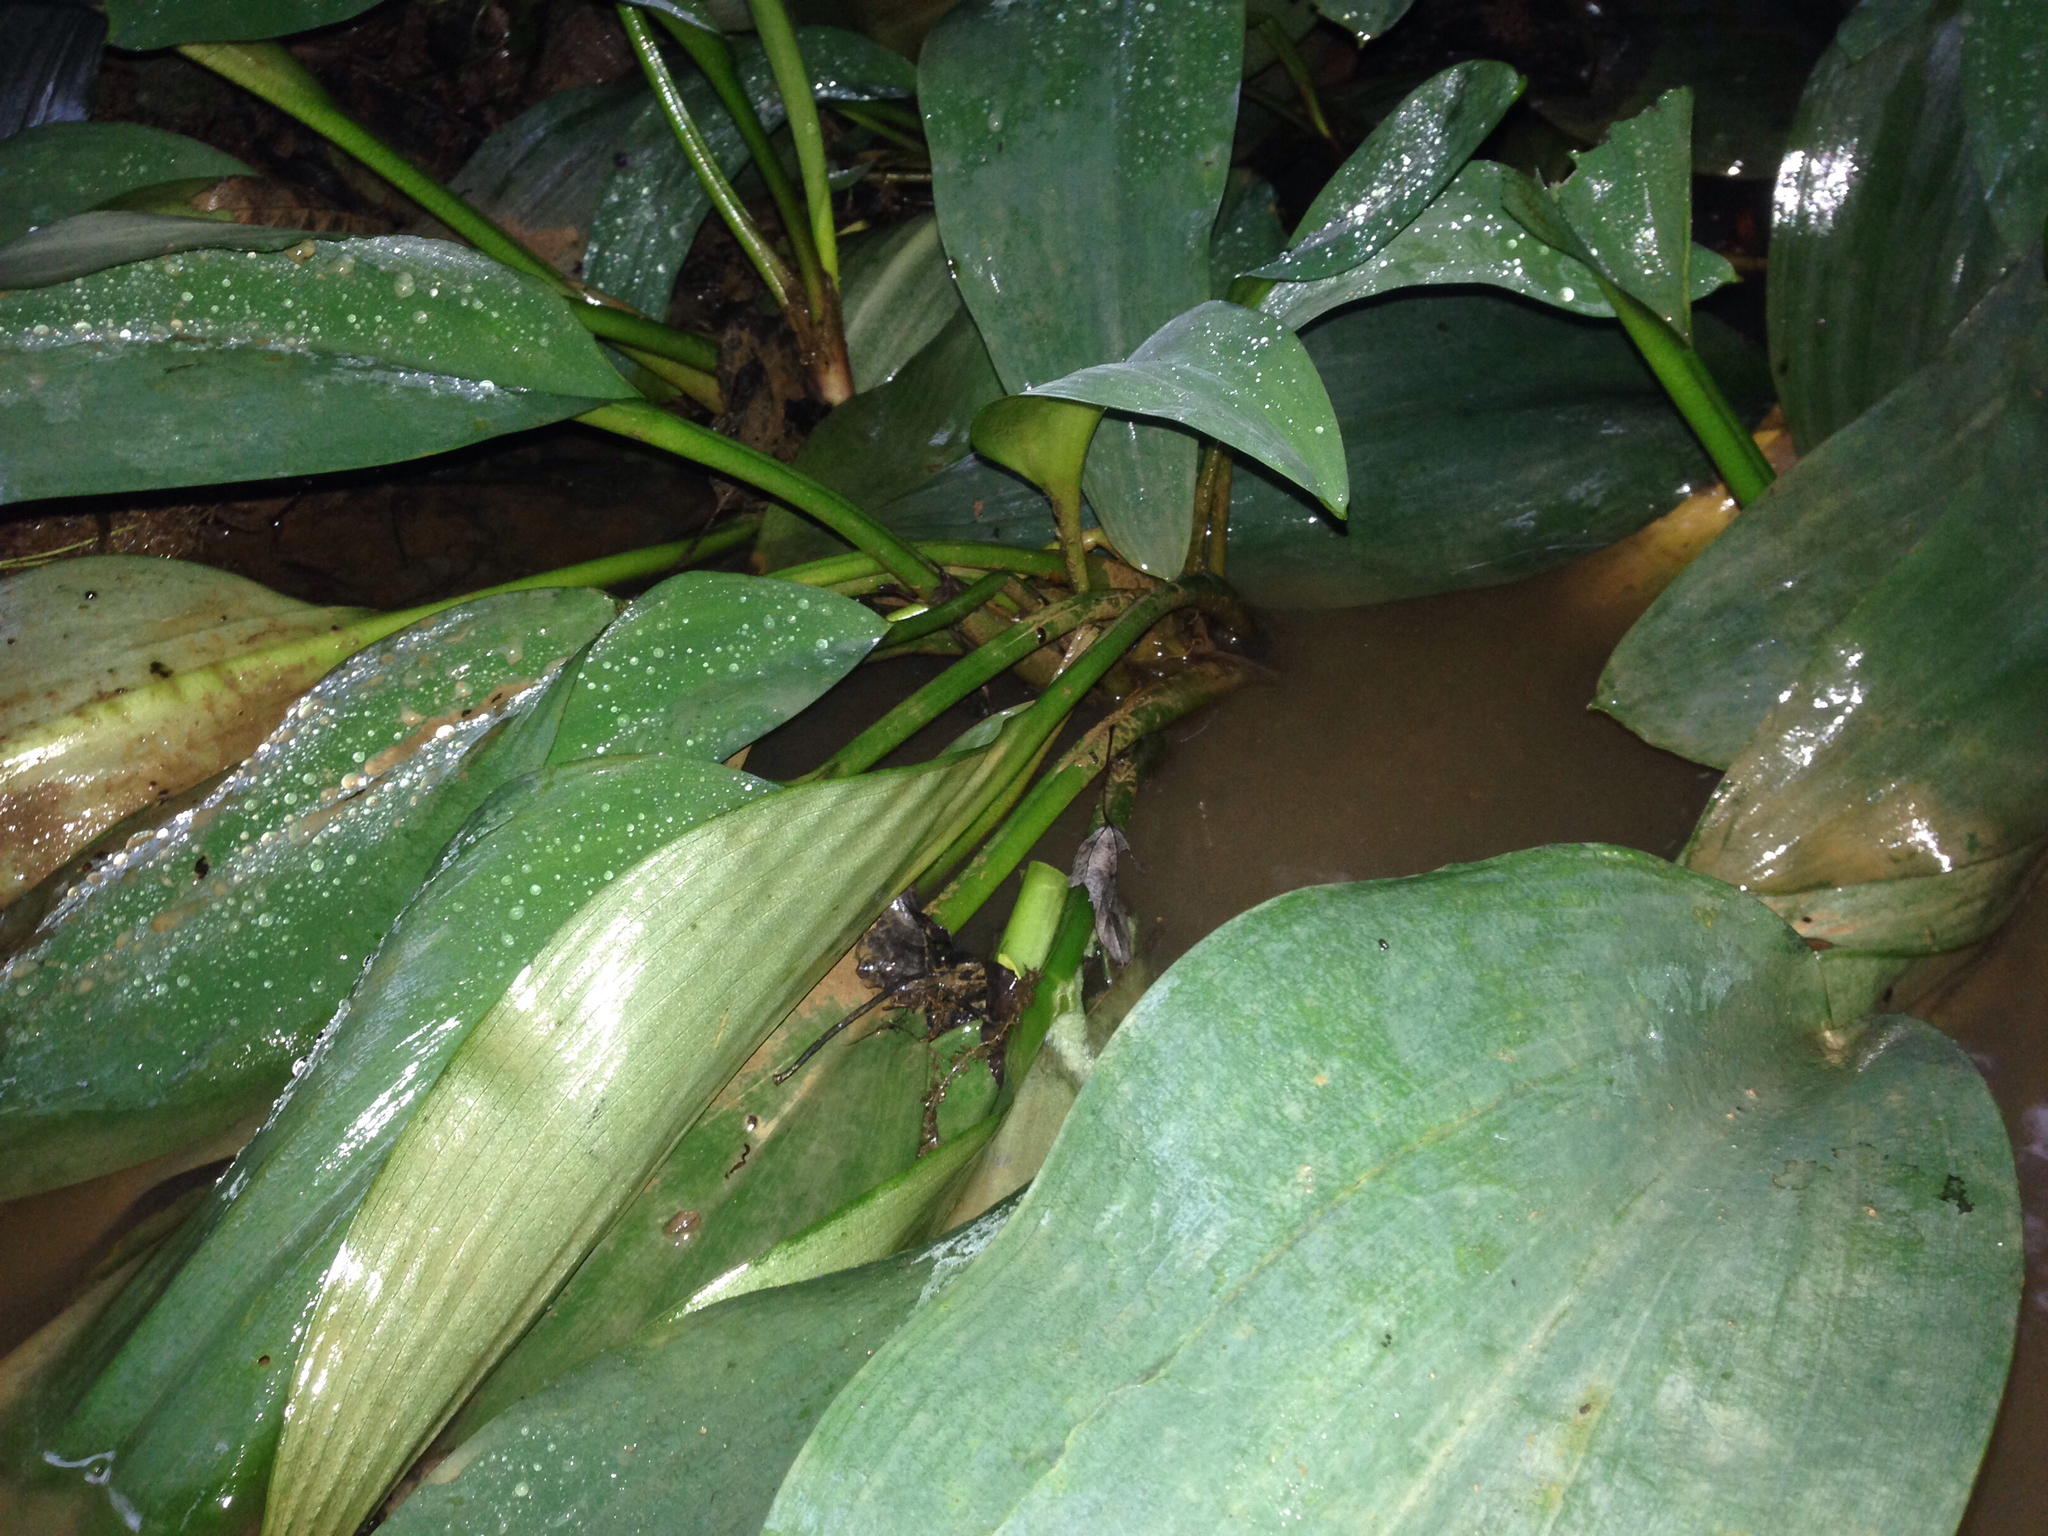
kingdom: Plantae
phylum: Tracheophyta
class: Liliopsida
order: Alismatales
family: Araceae
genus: Orontium
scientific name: Orontium aquaticum
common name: Golden-club
